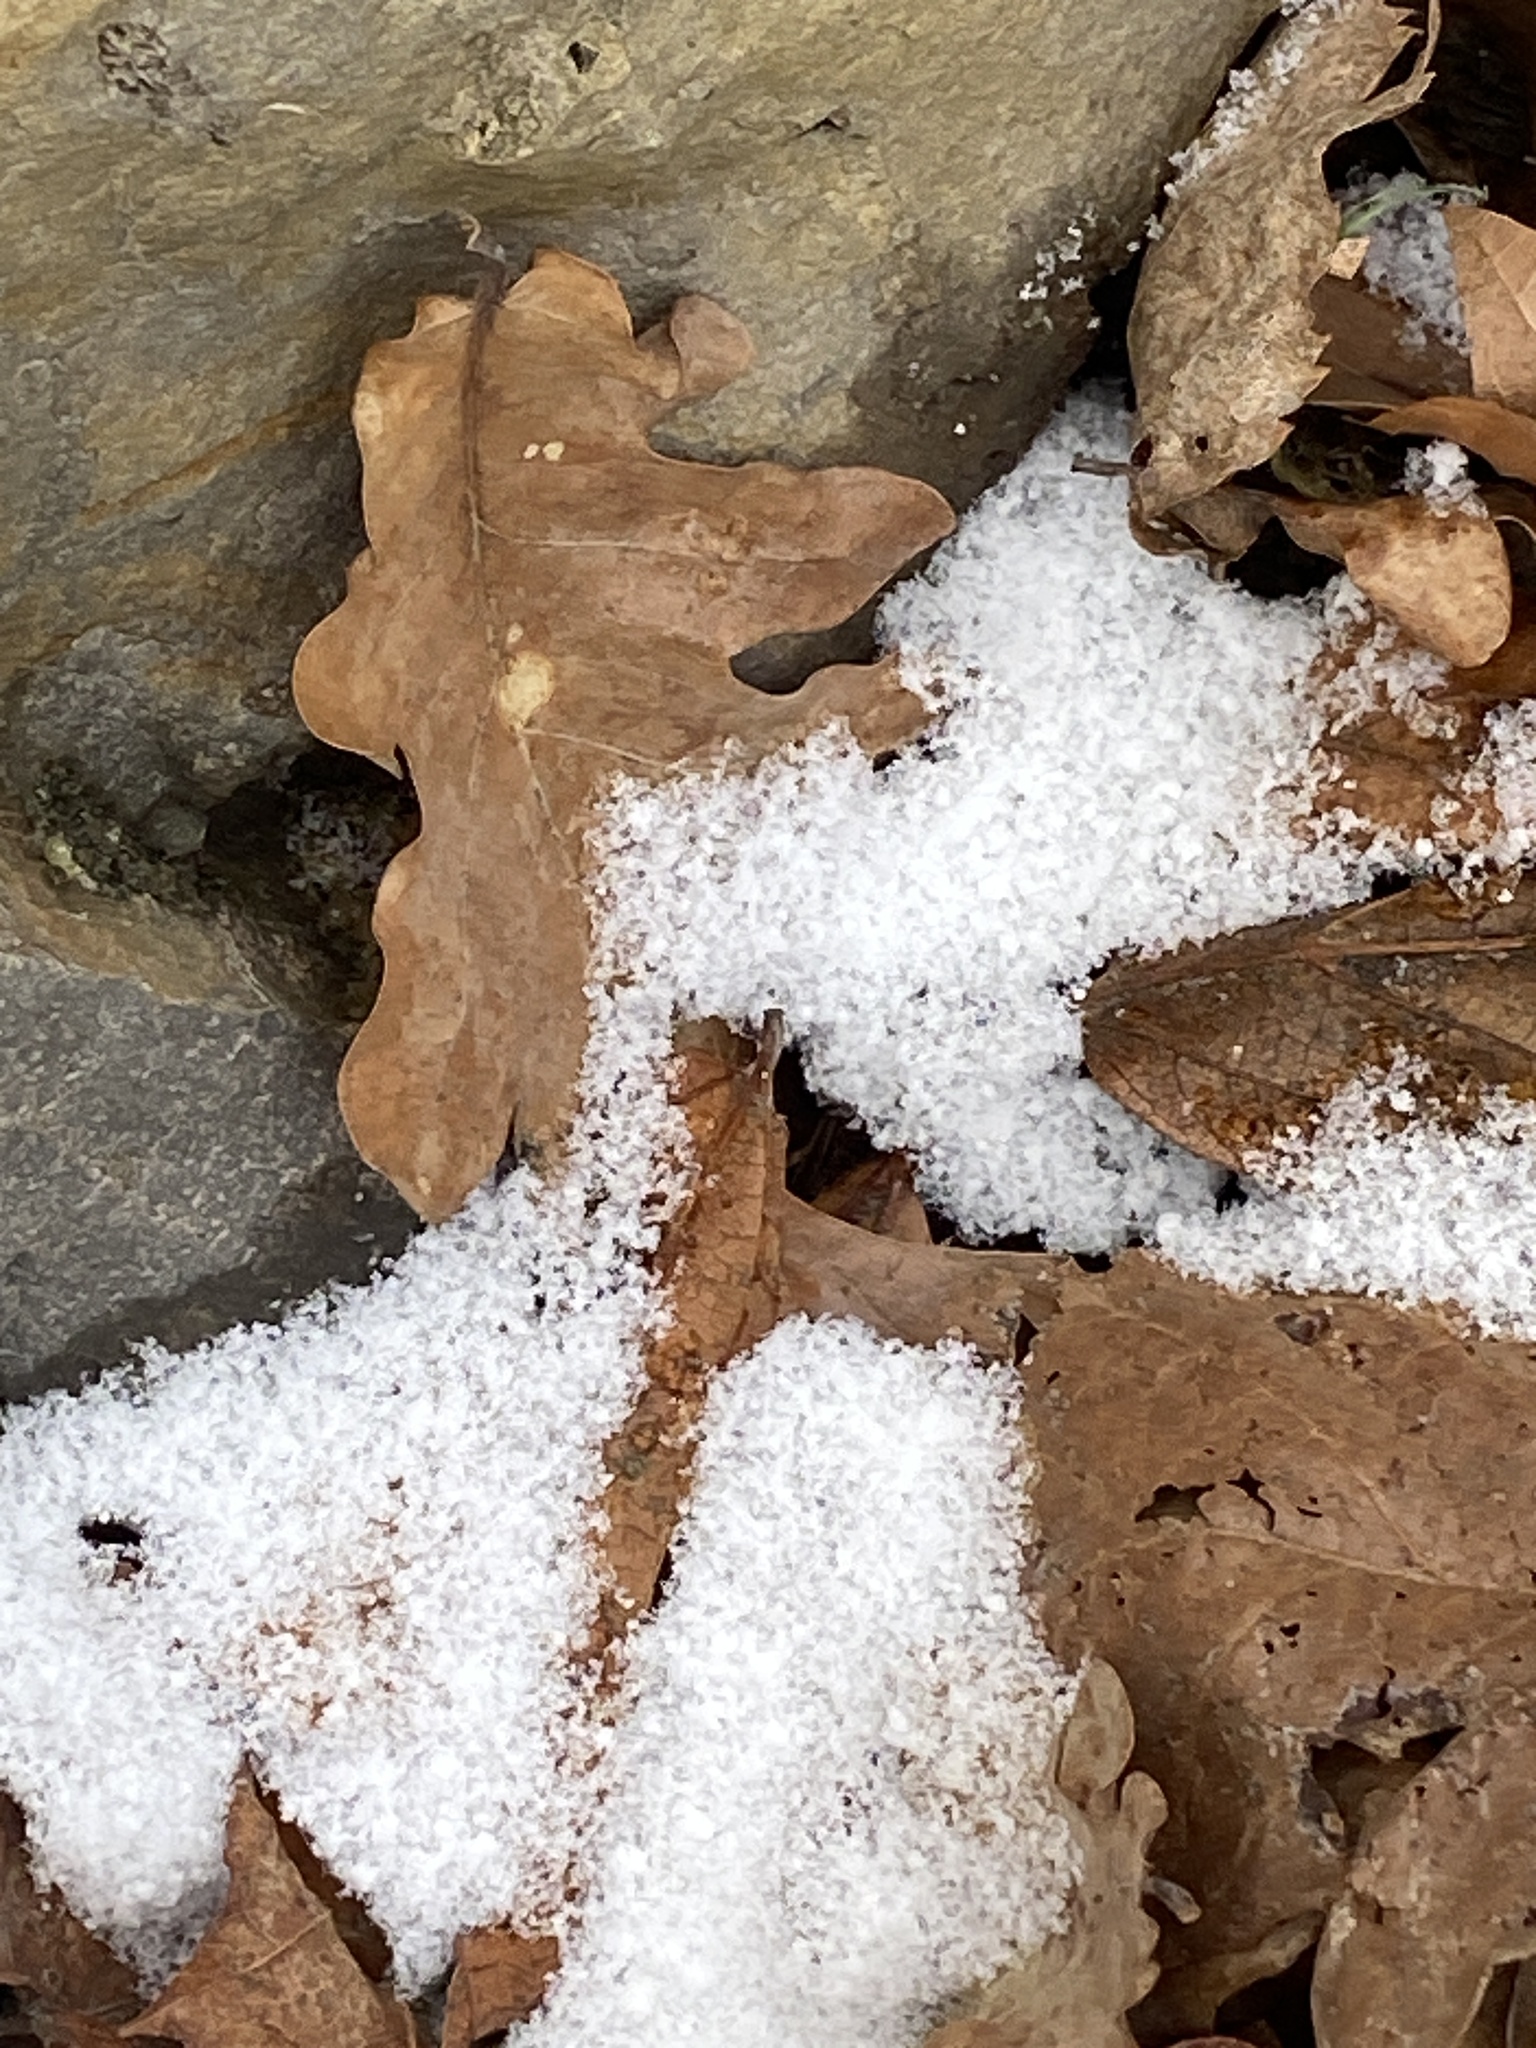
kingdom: Plantae
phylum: Tracheophyta
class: Magnoliopsida
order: Fagales
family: Fagaceae
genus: Quercus
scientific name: Quercus alba
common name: White oak
